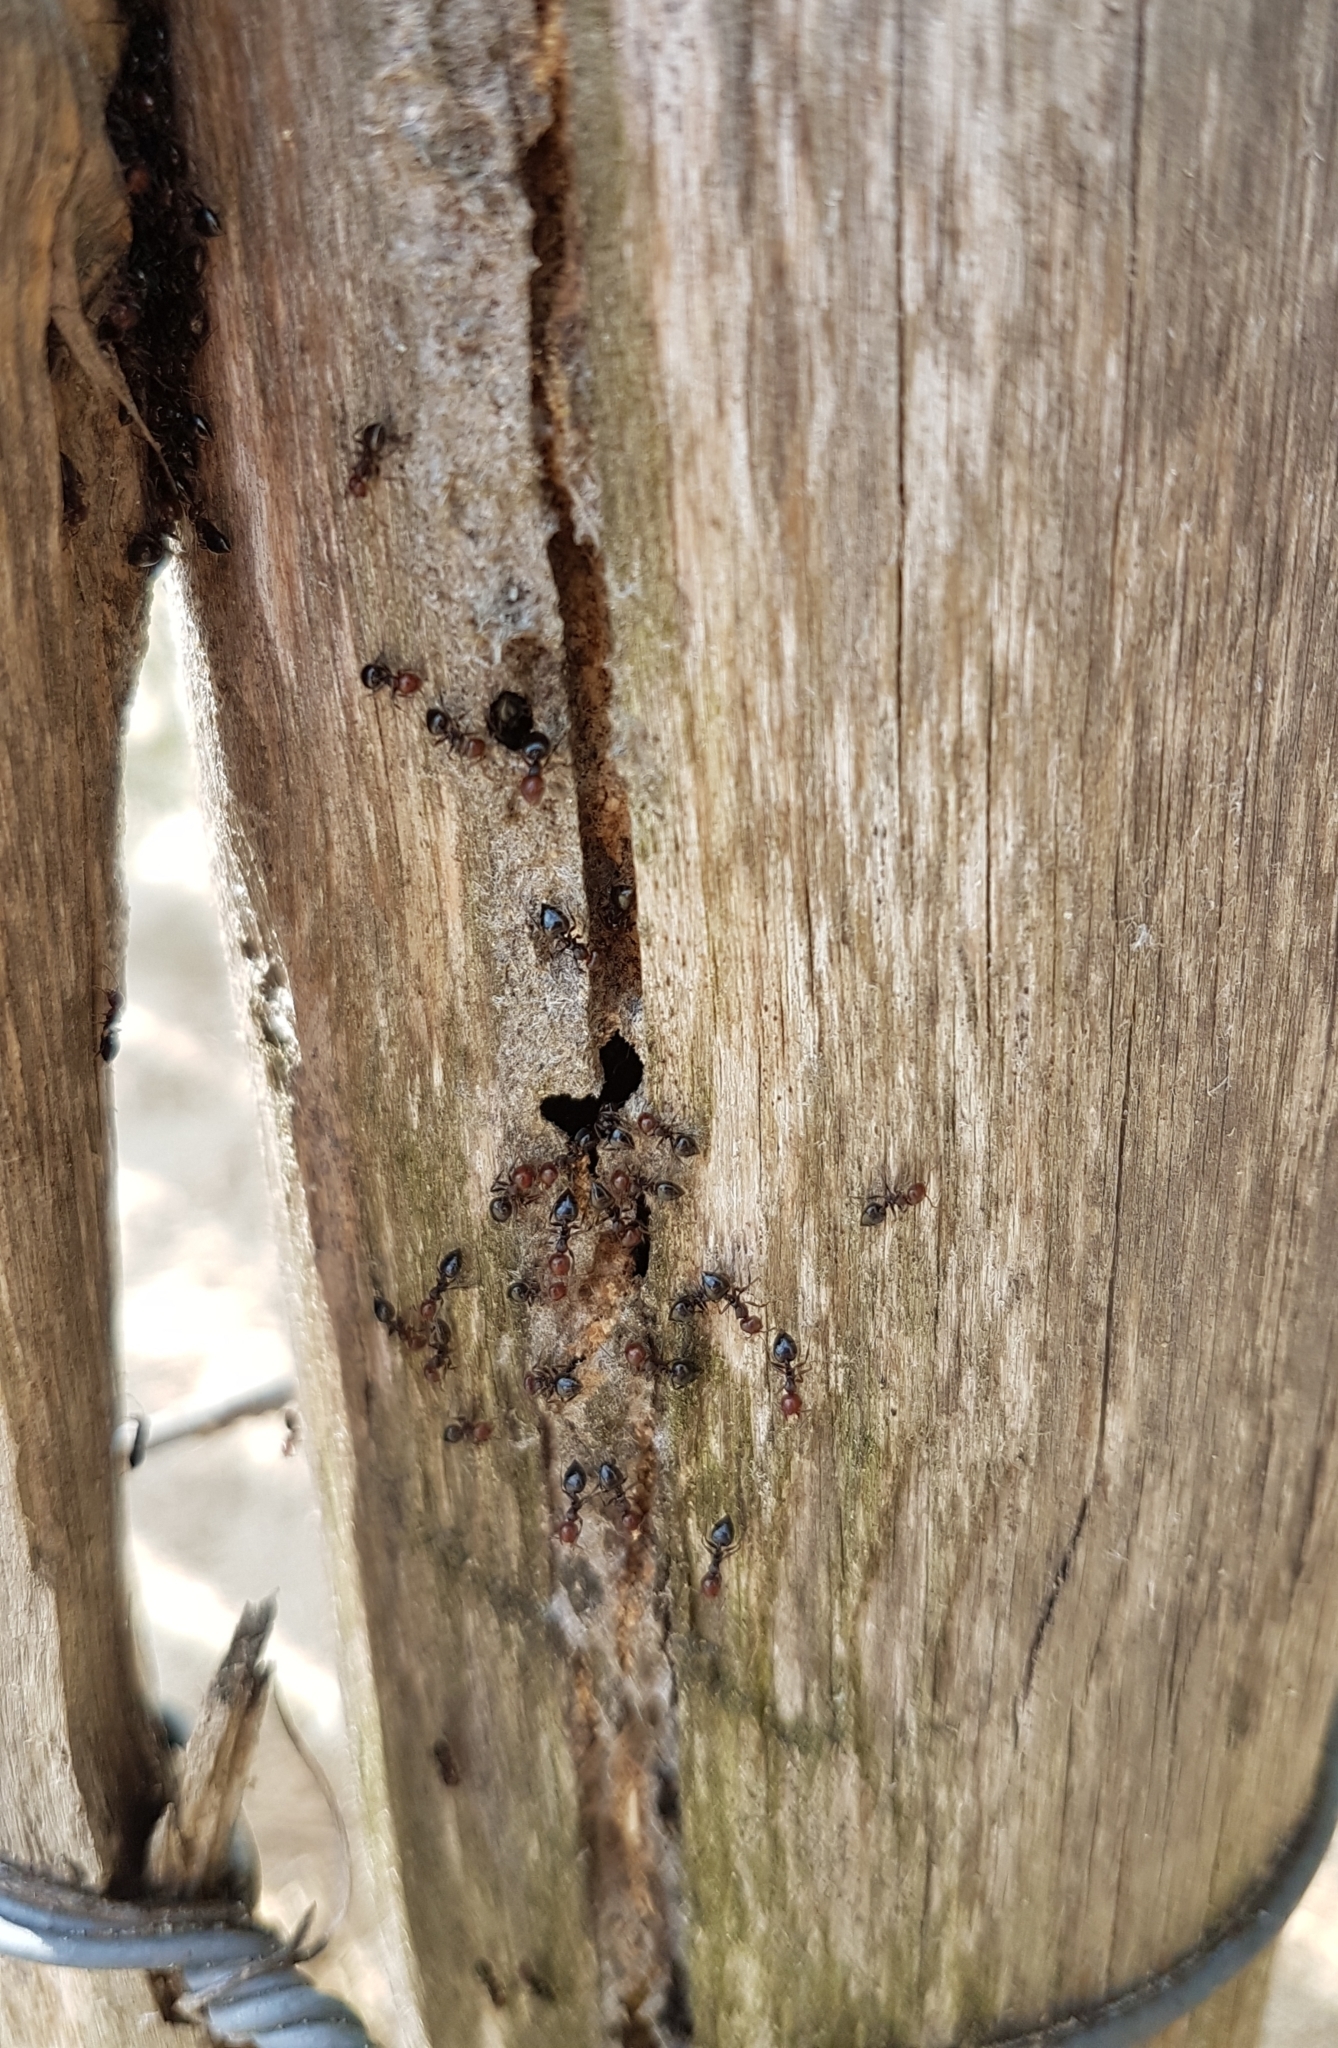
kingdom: Animalia
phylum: Arthropoda
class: Insecta
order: Hymenoptera
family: Formicidae
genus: Crematogaster
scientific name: Crematogaster scutellaris
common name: Fourmi du liège
